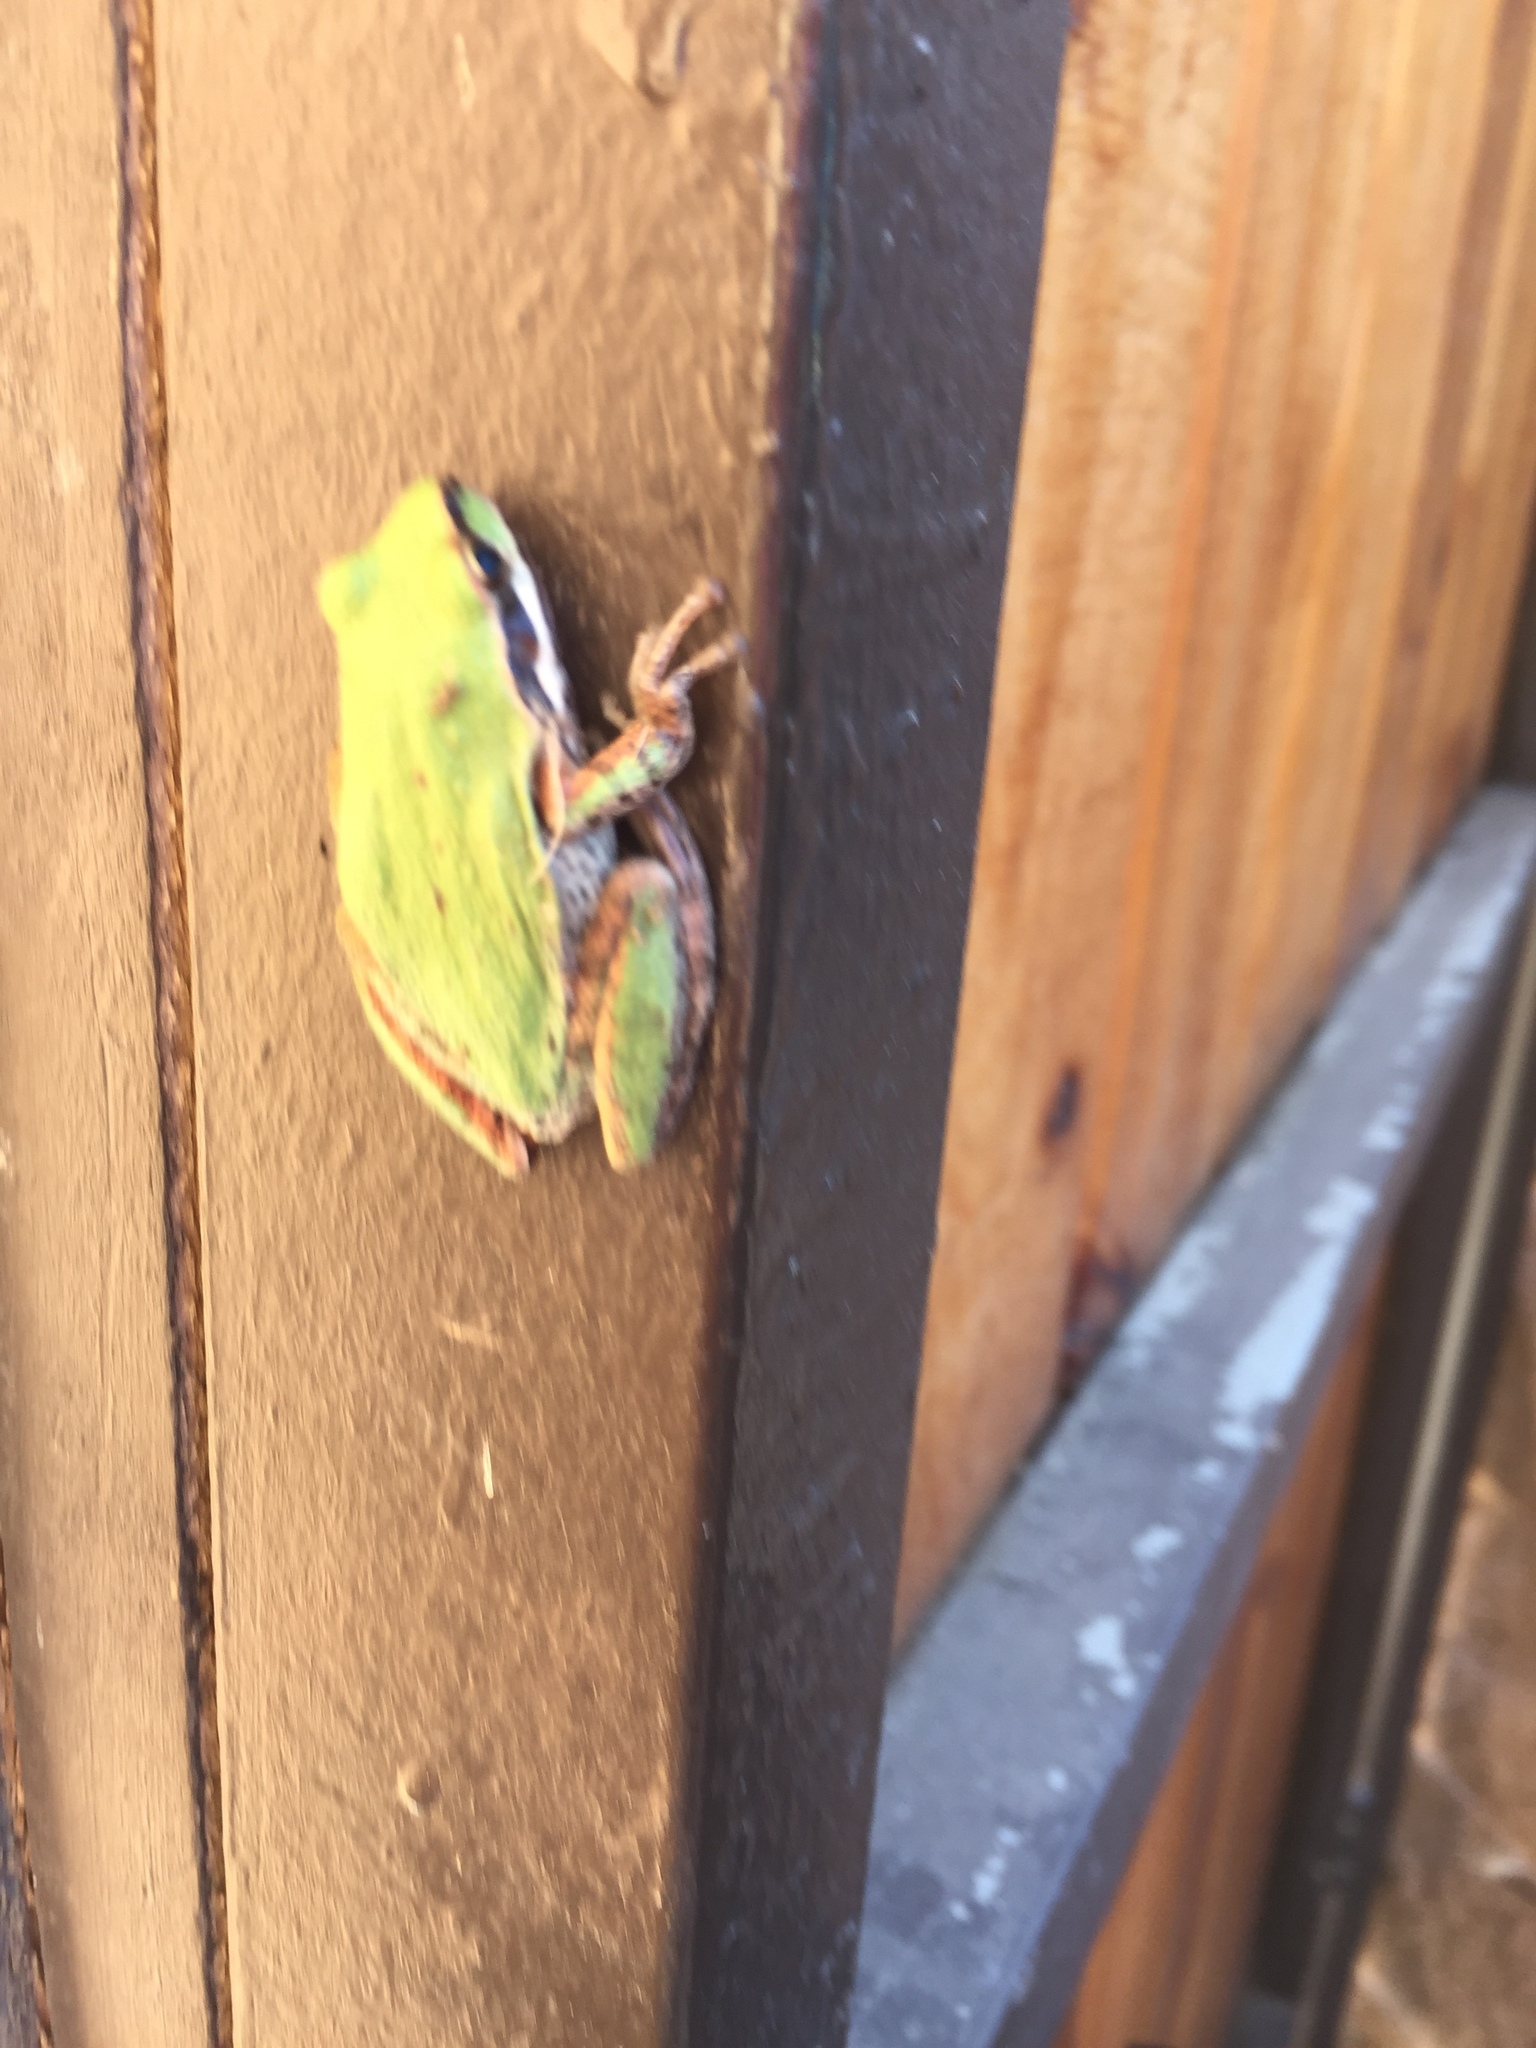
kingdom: Animalia
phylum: Chordata
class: Amphibia
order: Anura
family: Hylidae
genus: Pseudacris
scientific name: Pseudacris regilla
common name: Pacific chorus frog
